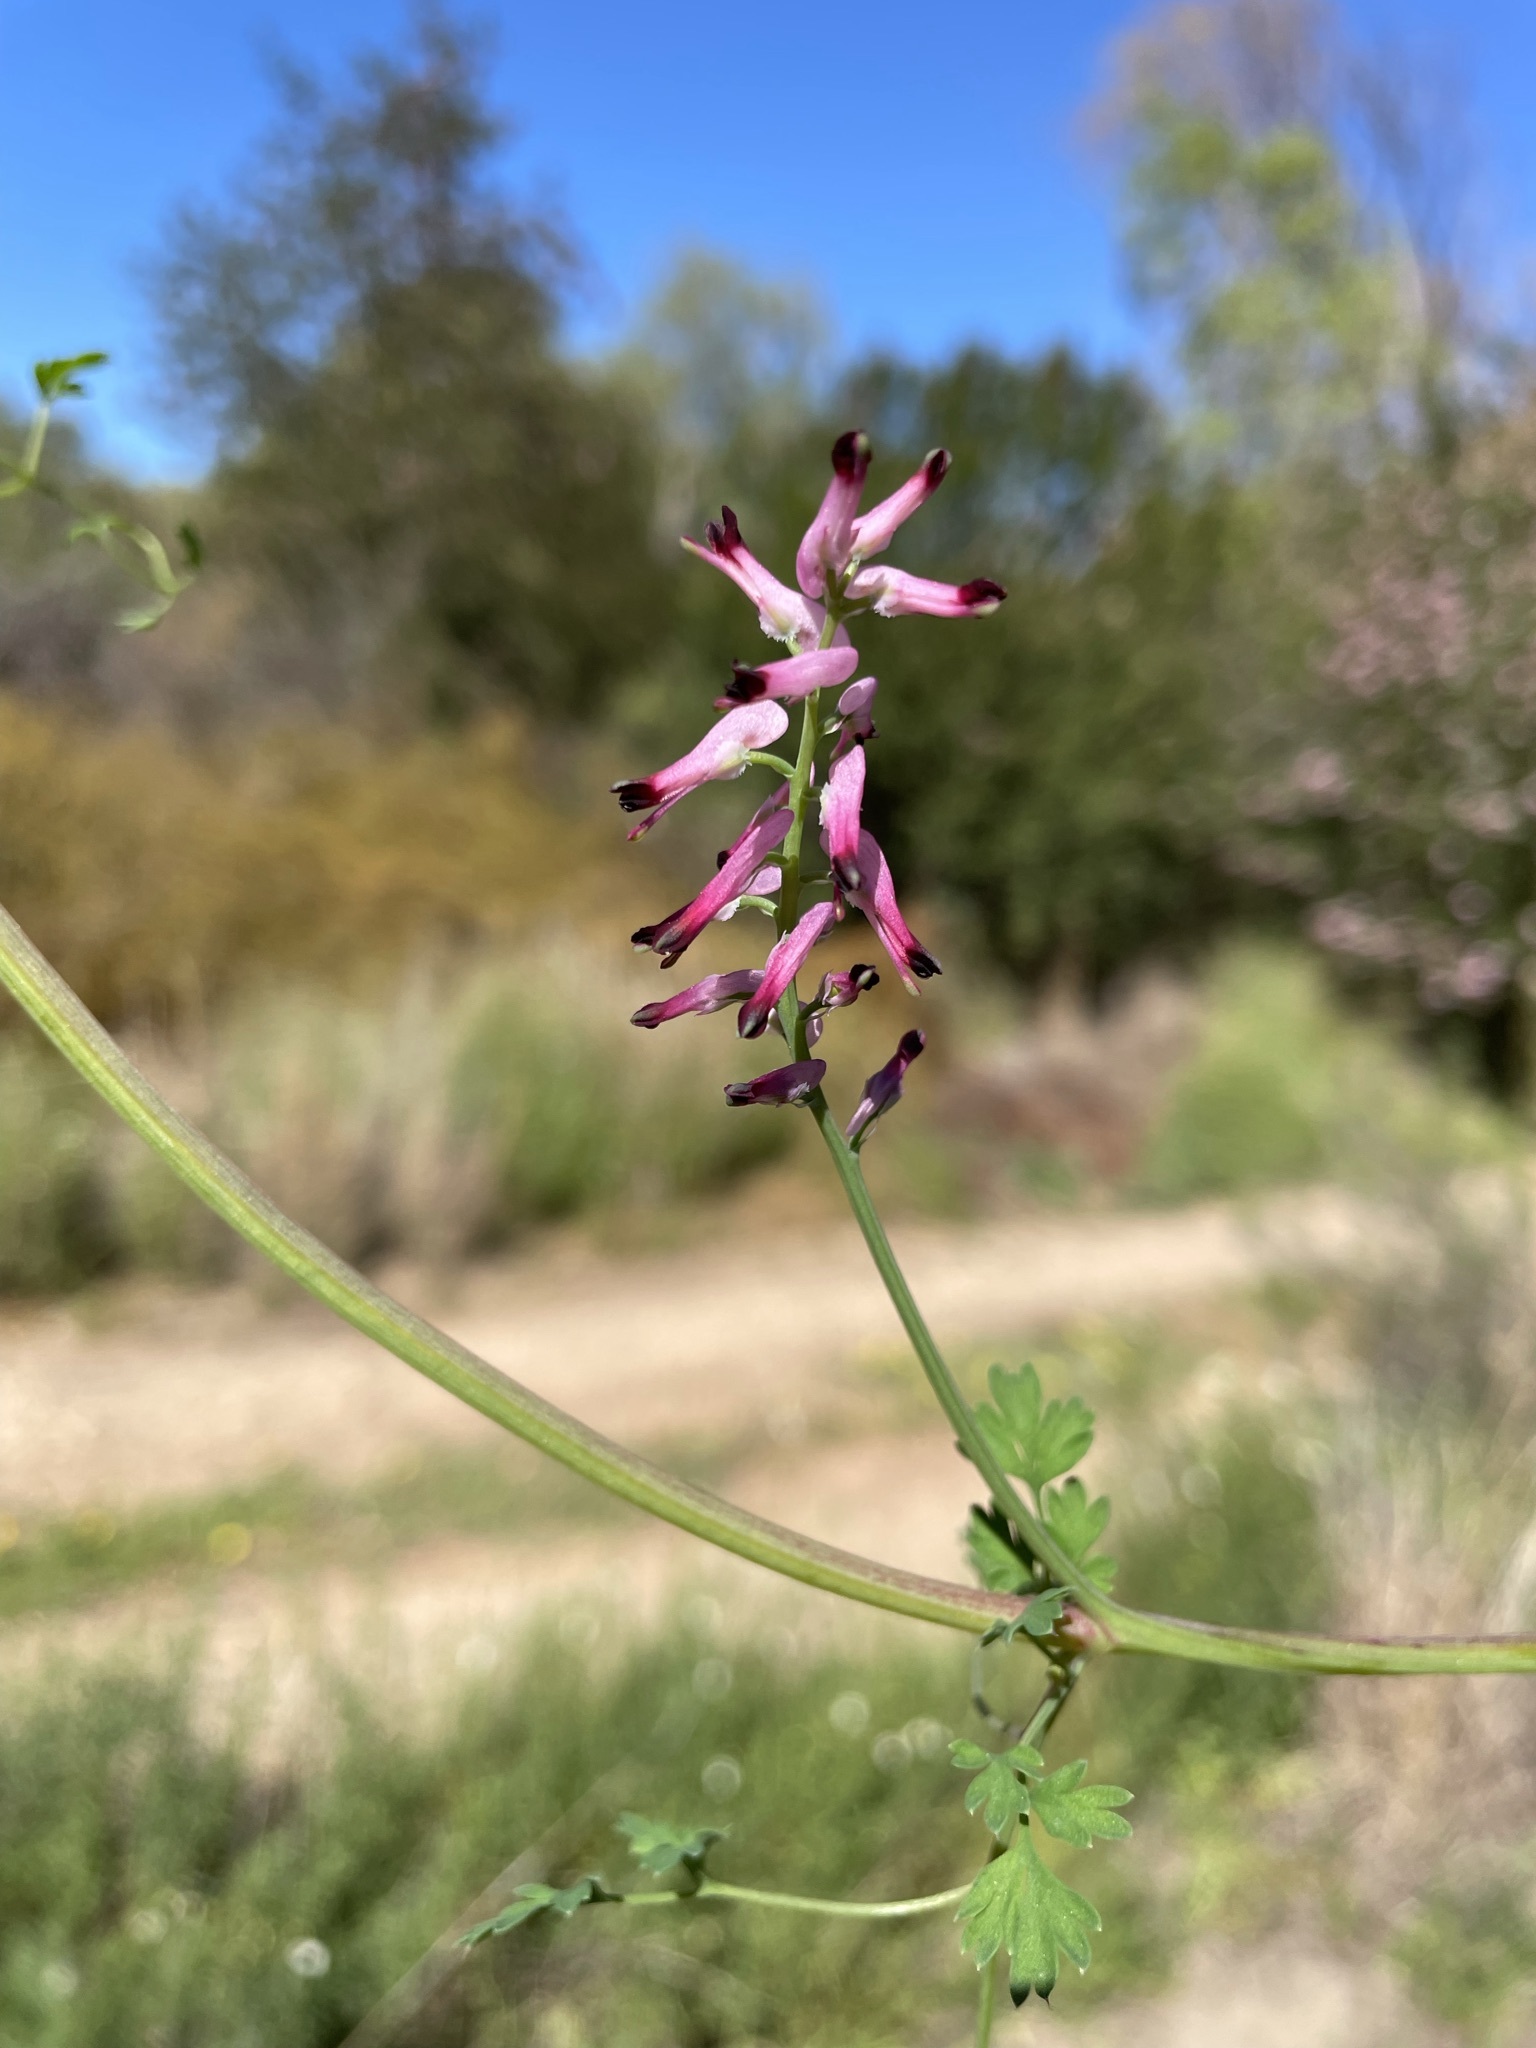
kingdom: Plantae
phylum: Tracheophyta
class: Magnoliopsida
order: Ranunculales
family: Papaveraceae
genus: Fumaria
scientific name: Fumaria muralis
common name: Common ramping-fumitory
